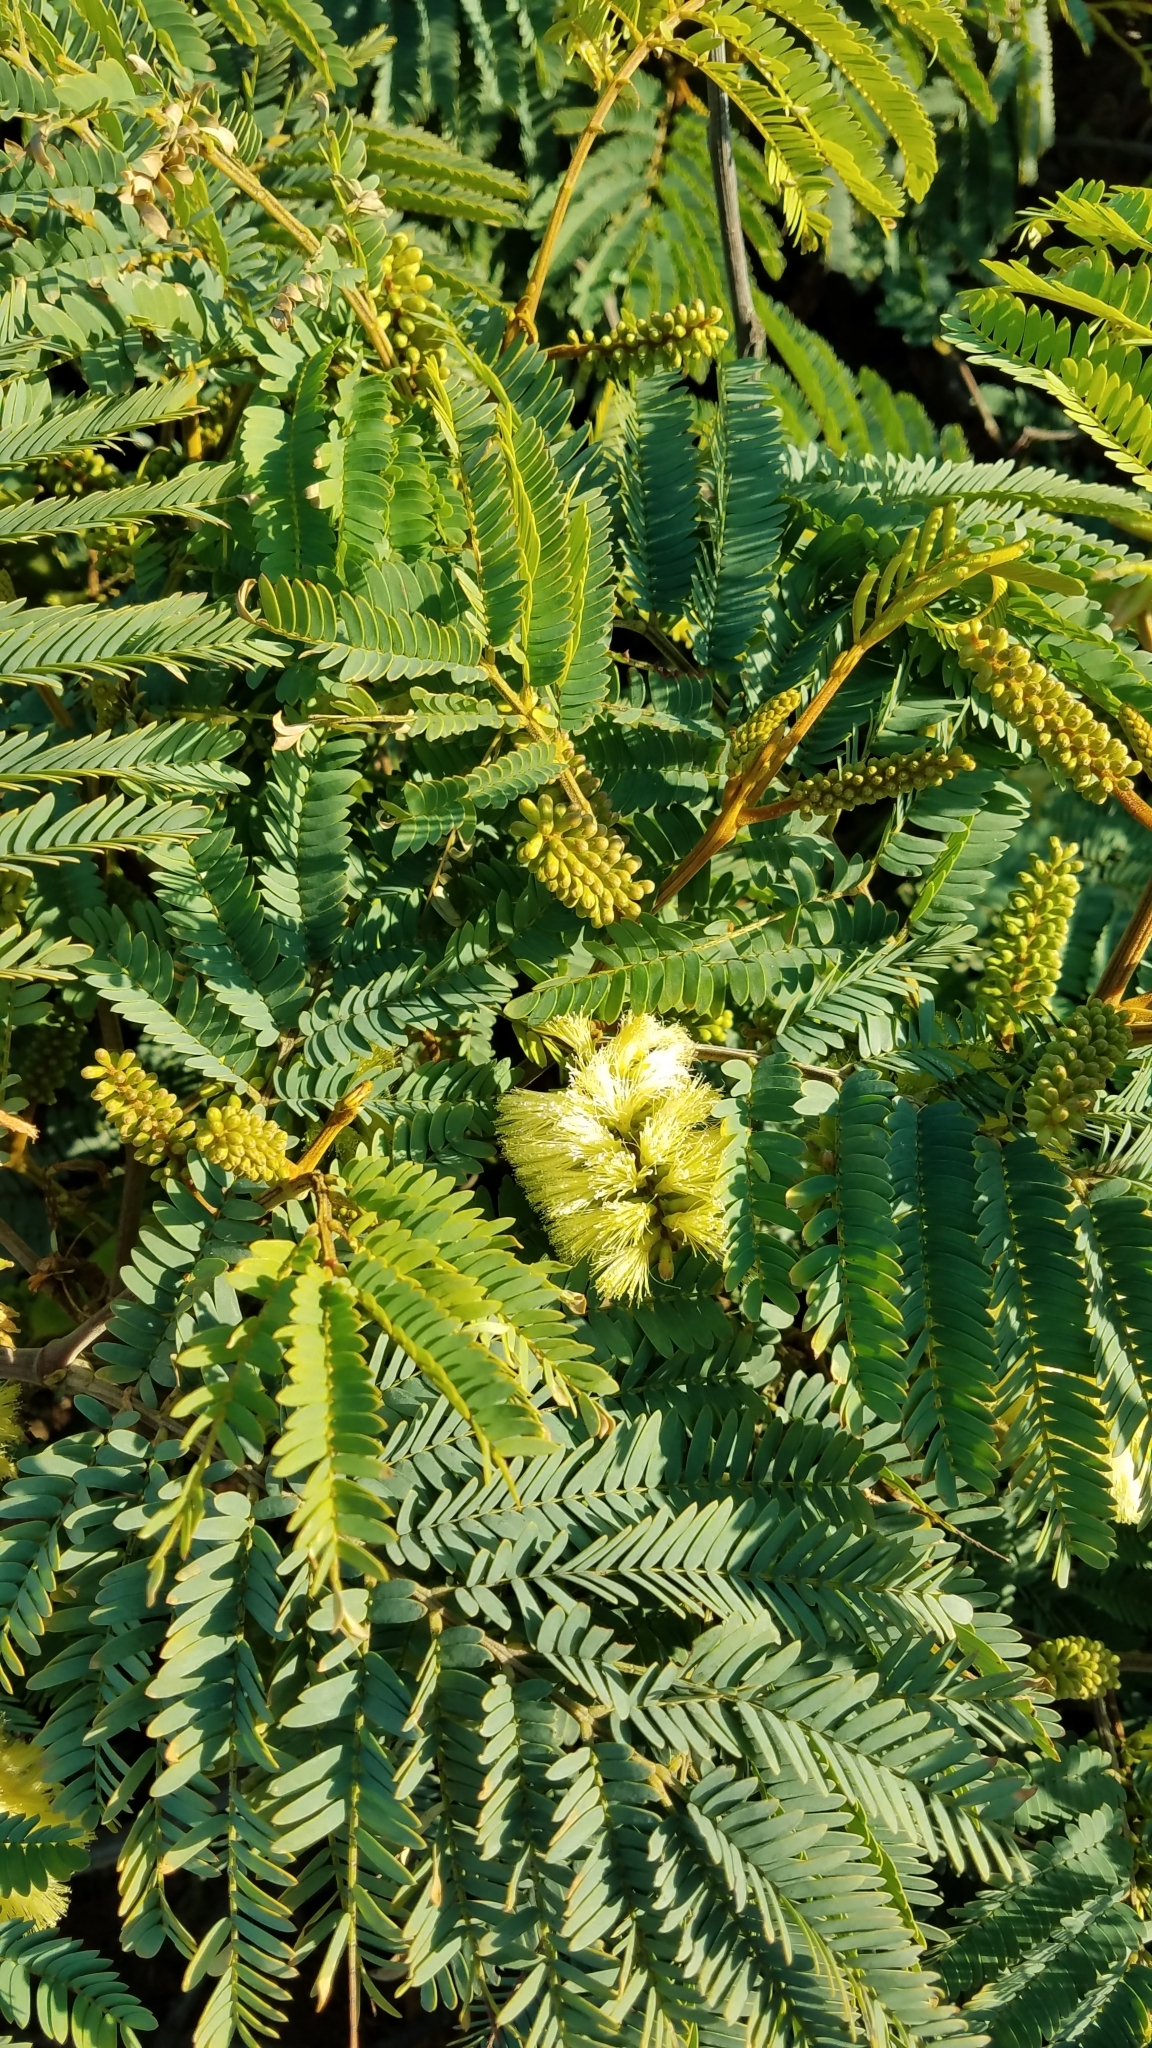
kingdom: Plantae
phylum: Tracheophyta
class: Magnoliopsida
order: Fabales
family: Fabaceae
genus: Paraserianthes
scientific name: Paraserianthes lophantha
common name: Plume albizia
